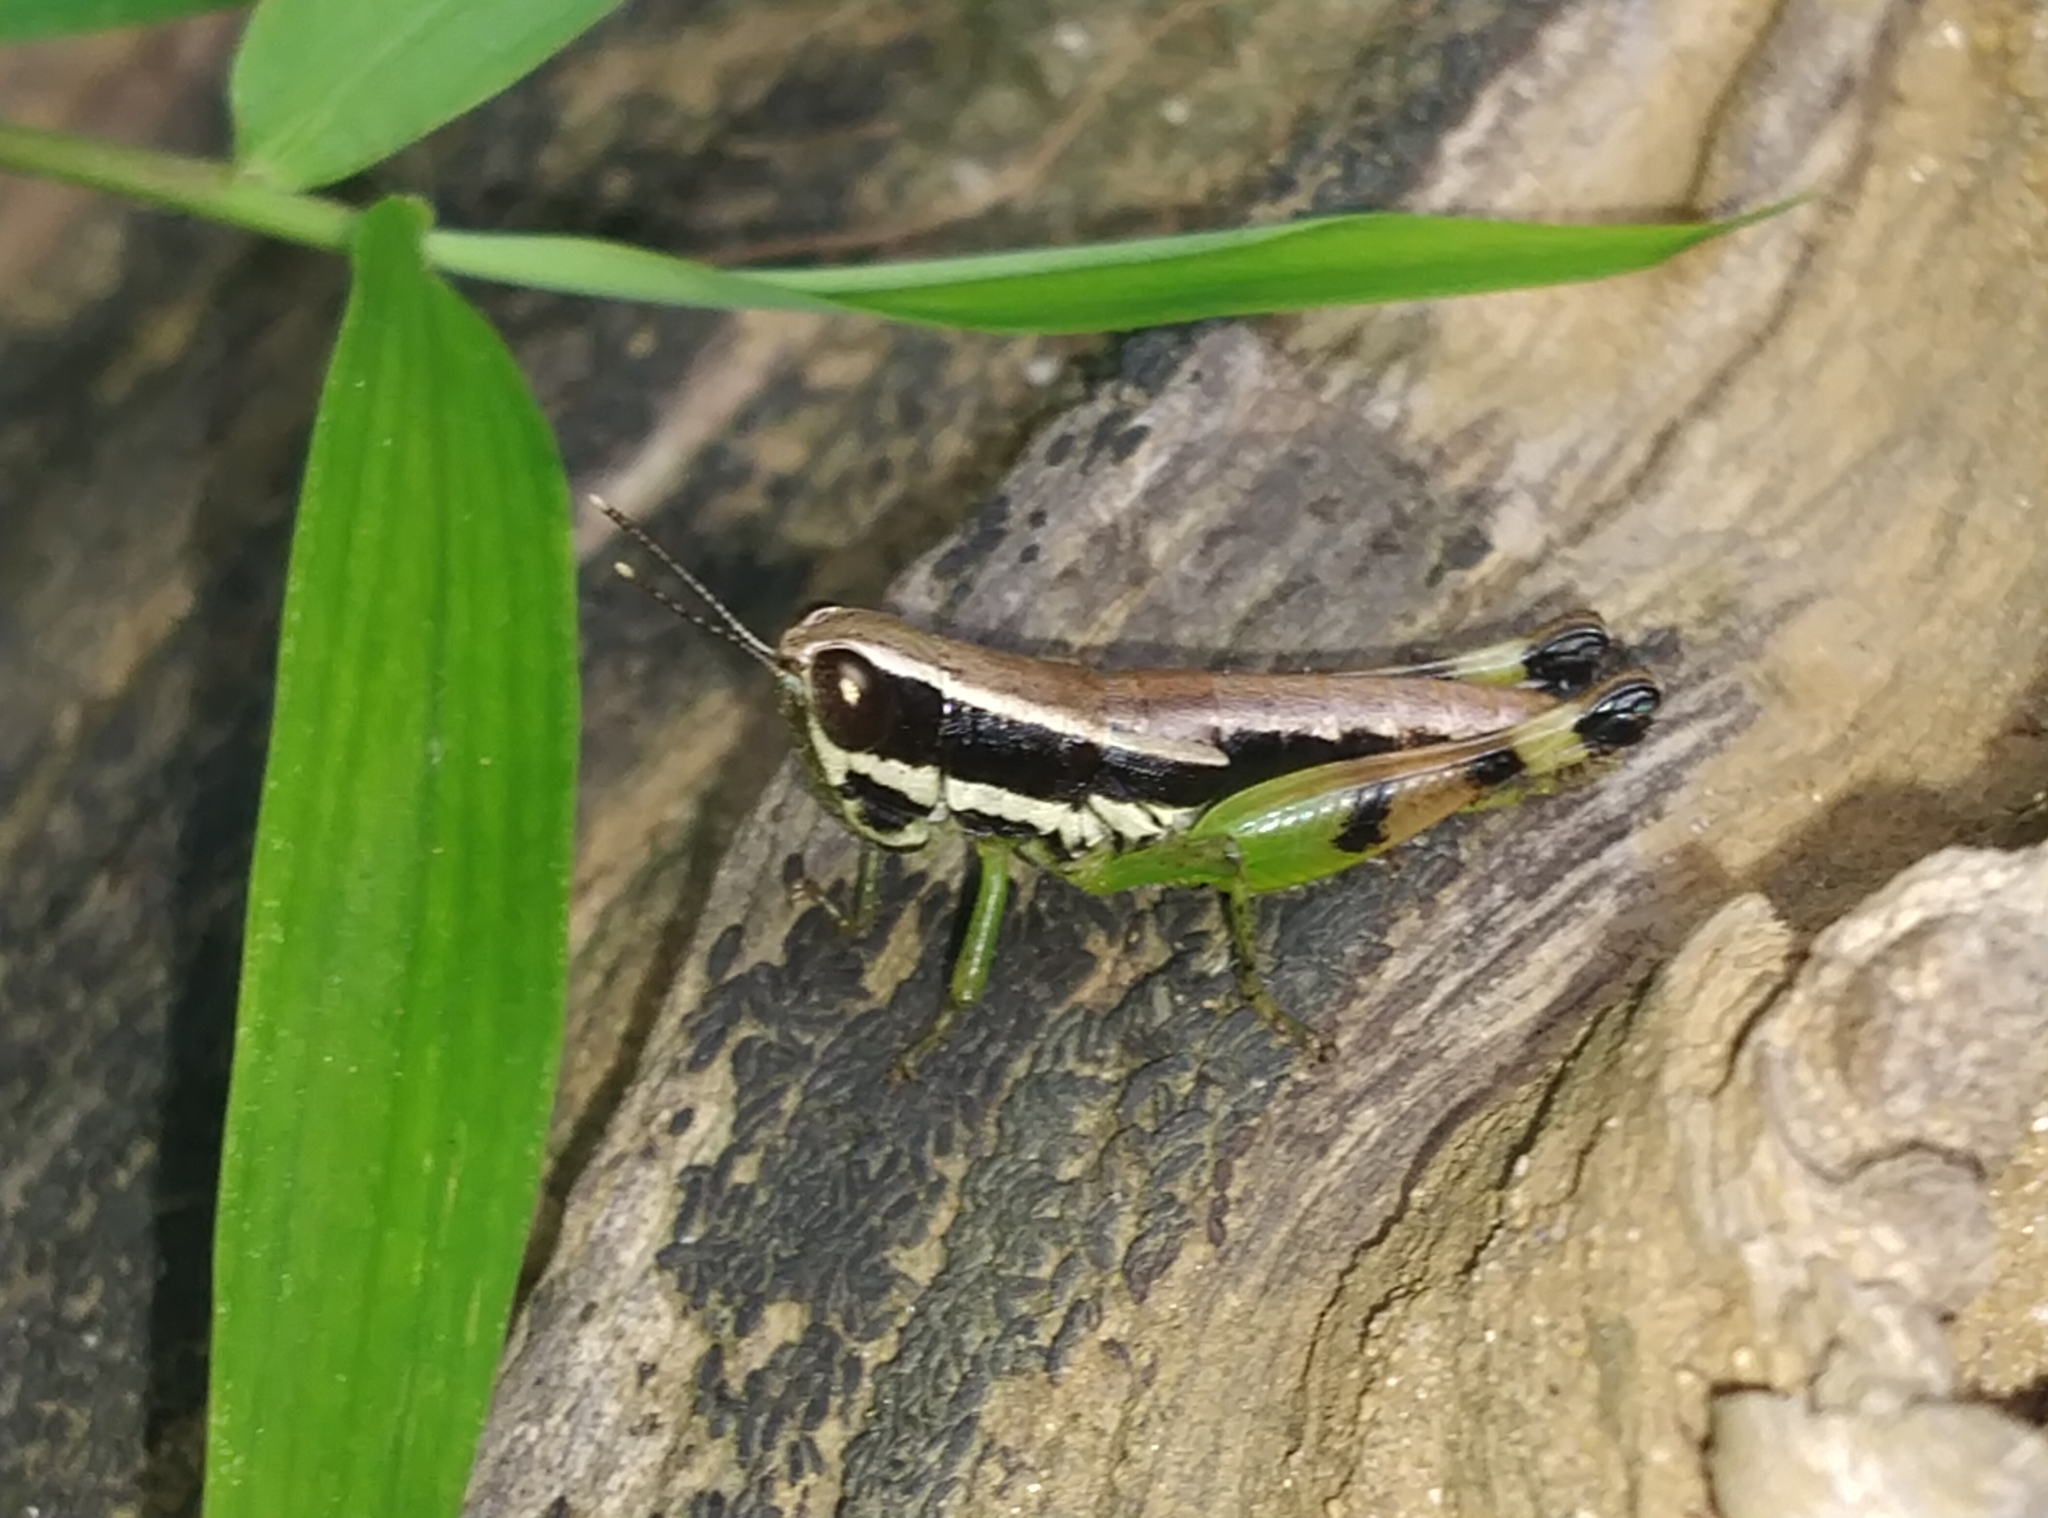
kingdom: Animalia
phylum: Arthropoda
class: Insecta
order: Orthoptera
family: Acrididae
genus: Chitaura
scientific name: Chitaura indica
